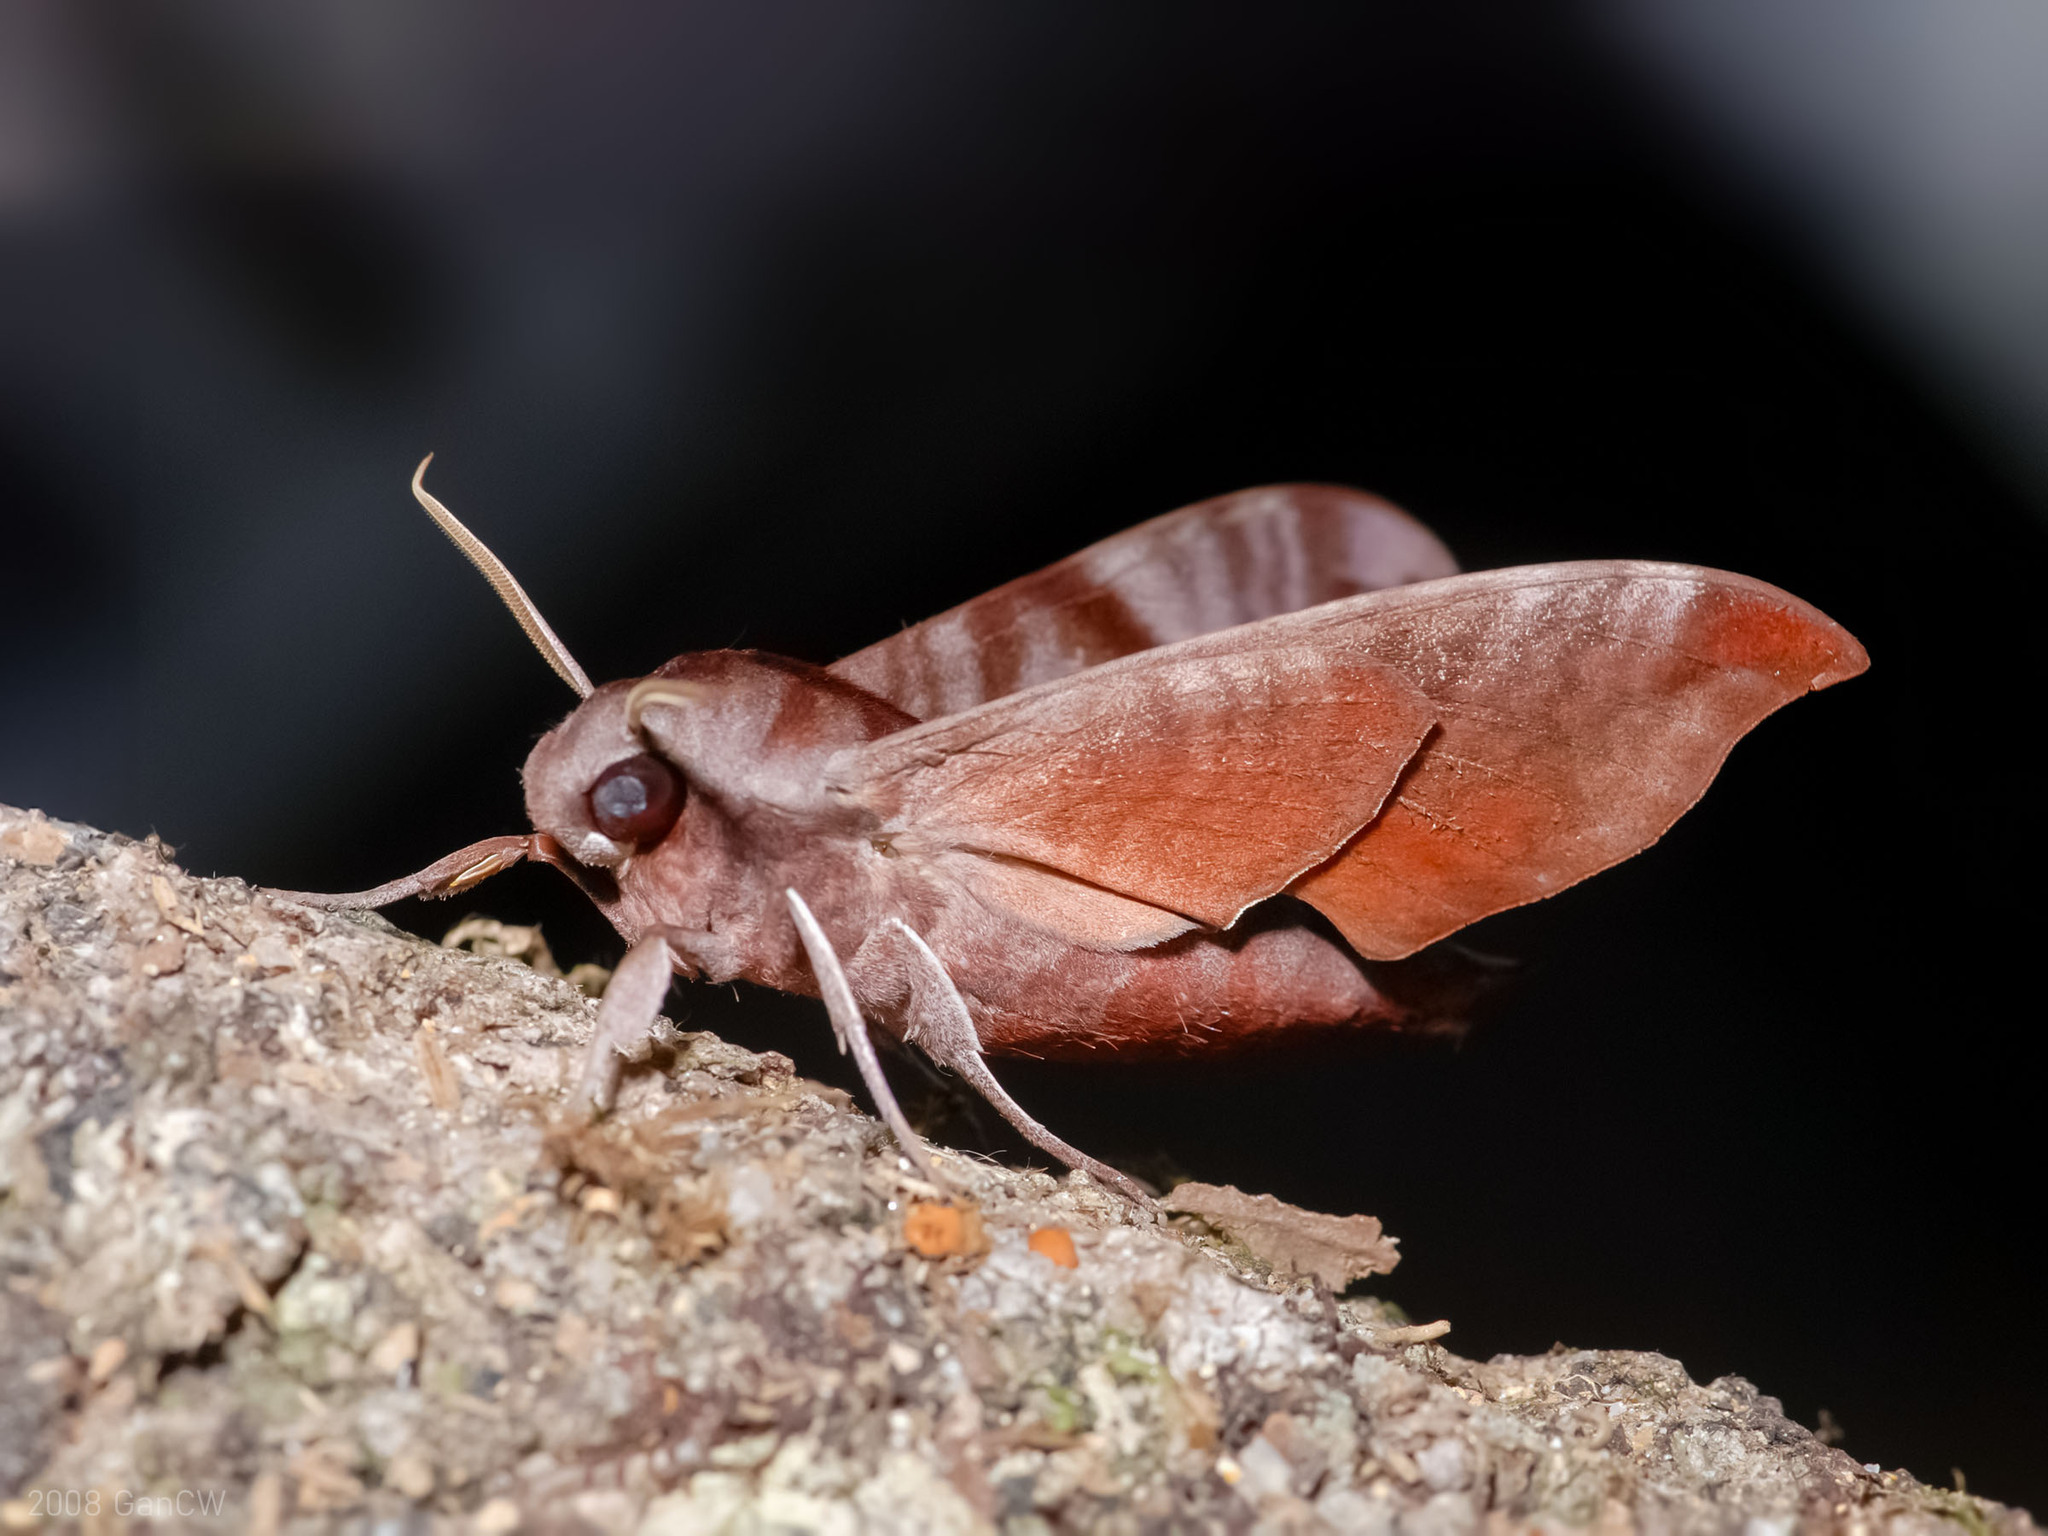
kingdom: Animalia
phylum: Arthropoda
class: Insecta
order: Lepidoptera
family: Sphingidae
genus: Dahira
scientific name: Dahira falcata
